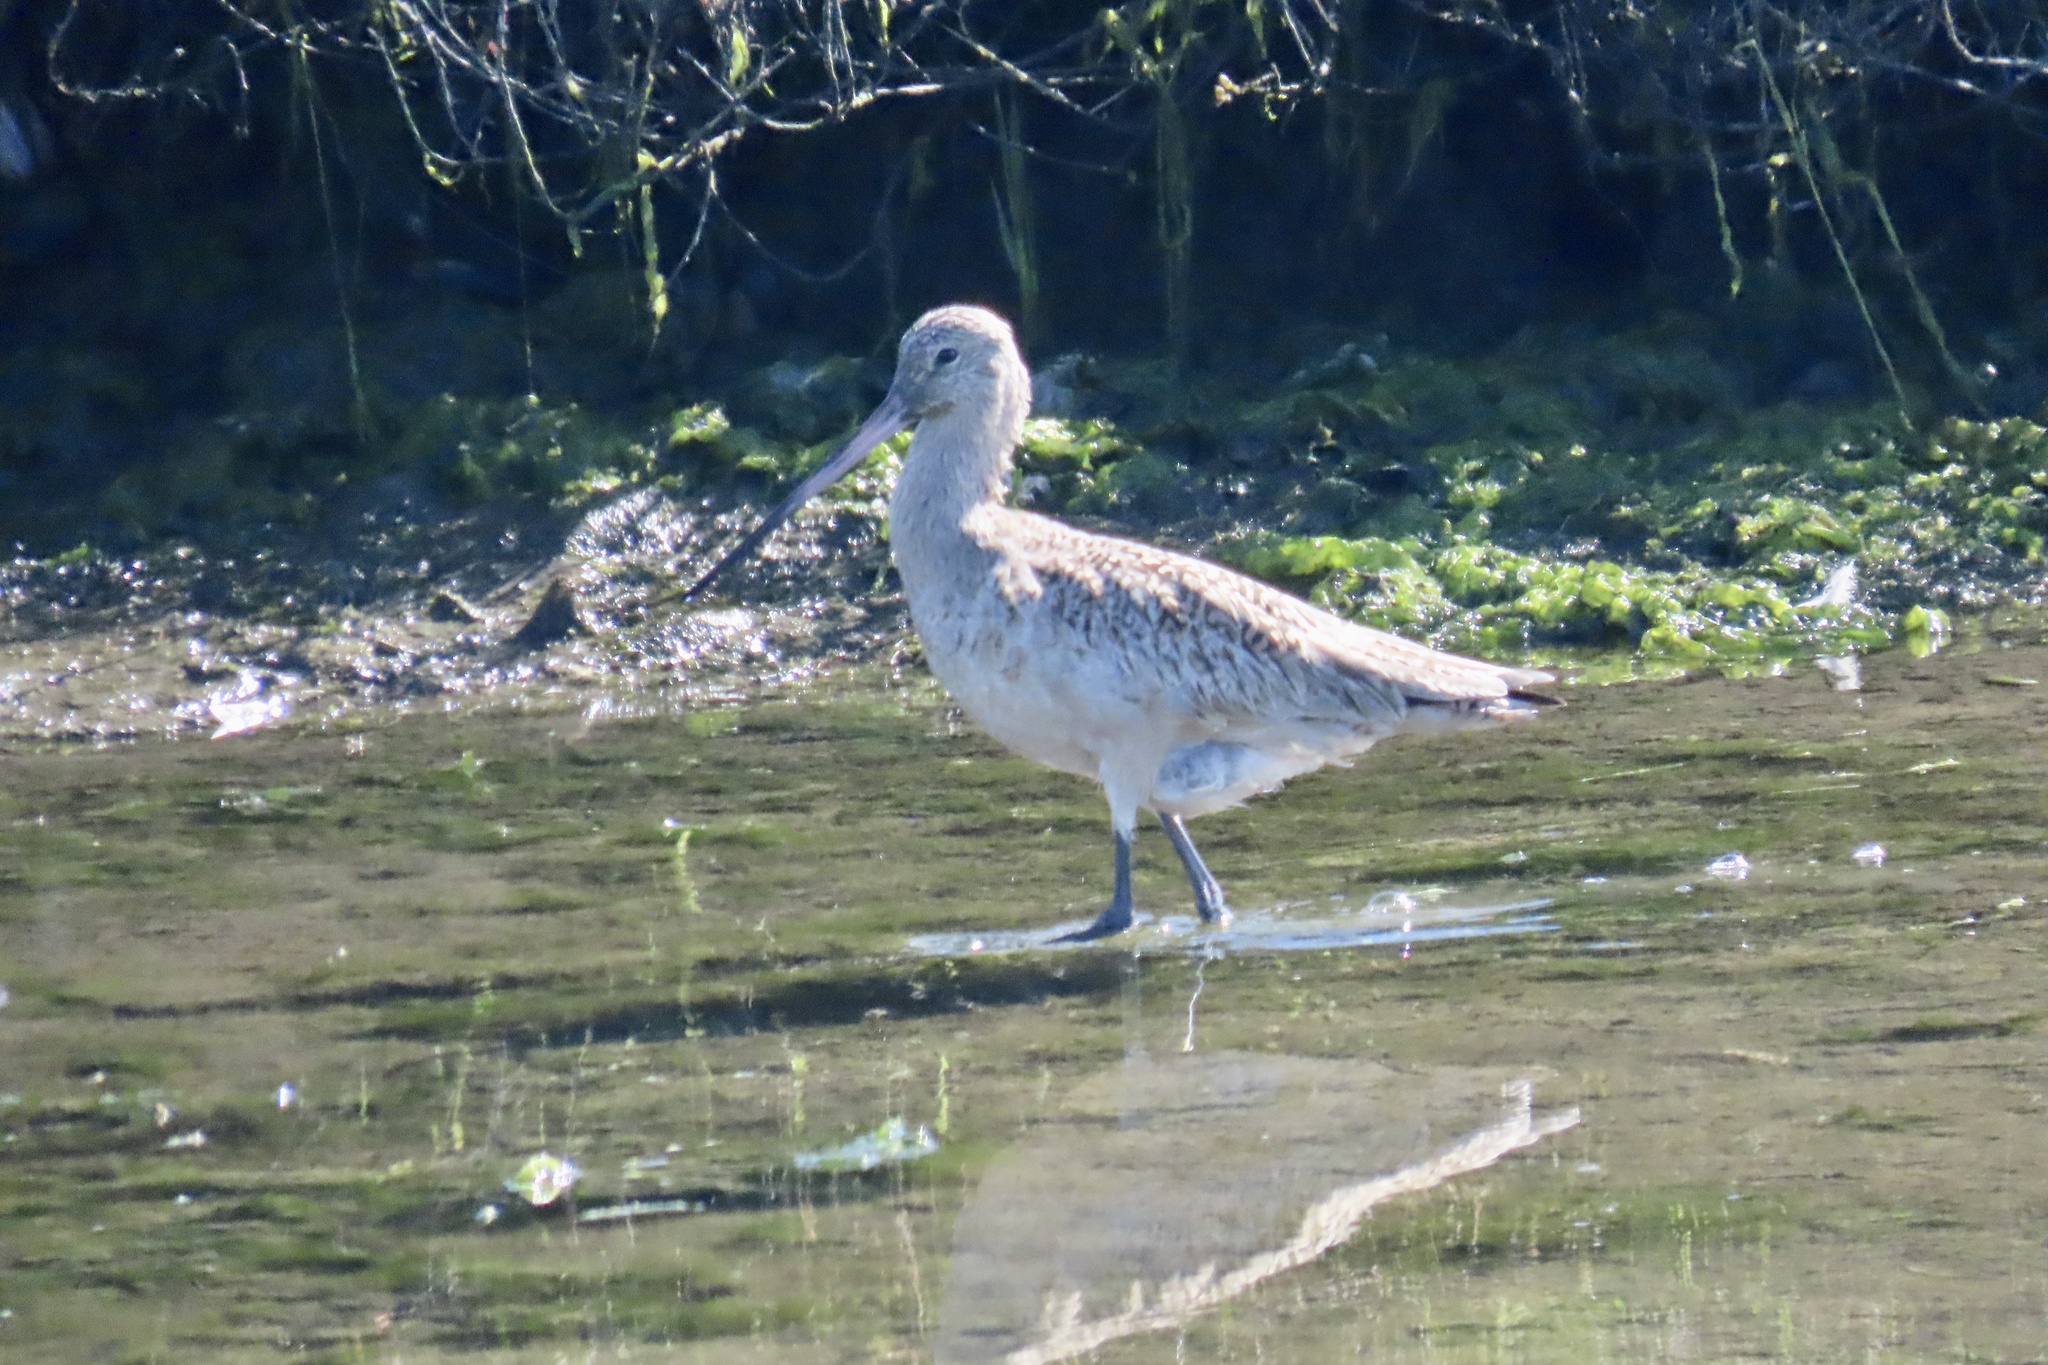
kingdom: Animalia
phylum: Chordata
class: Aves
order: Charadriiformes
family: Scolopacidae
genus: Limosa
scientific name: Limosa fedoa
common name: Marbled godwit
